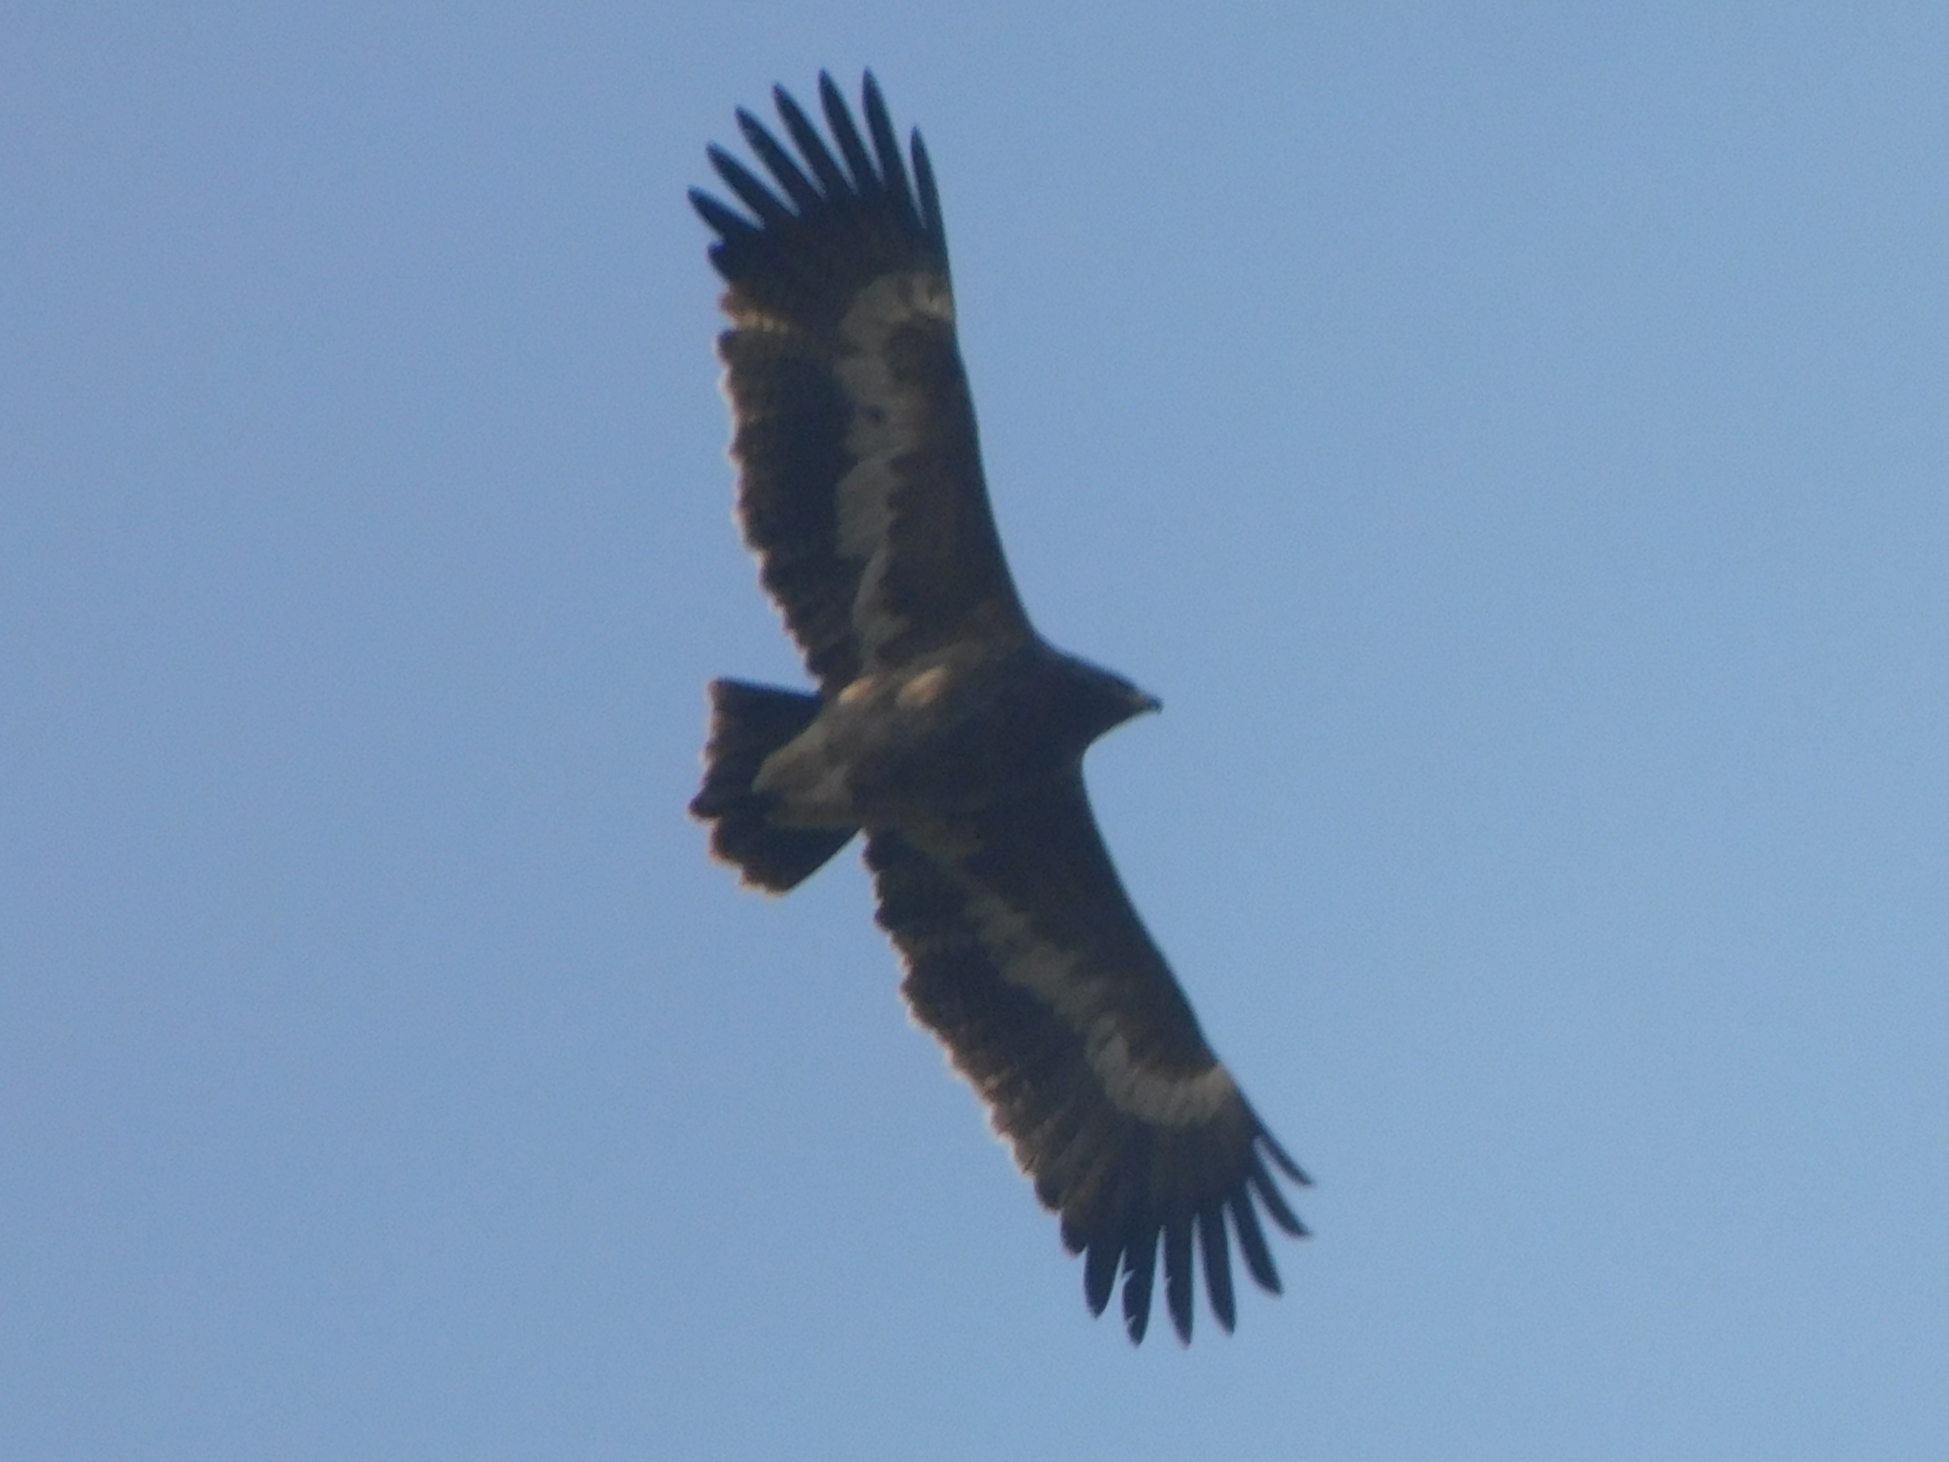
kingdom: Animalia
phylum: Chordata
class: Aves
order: Accipitriformes
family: Accipitridae
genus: Aquila
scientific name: Aquila nipalensis
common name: Steppe eagle
